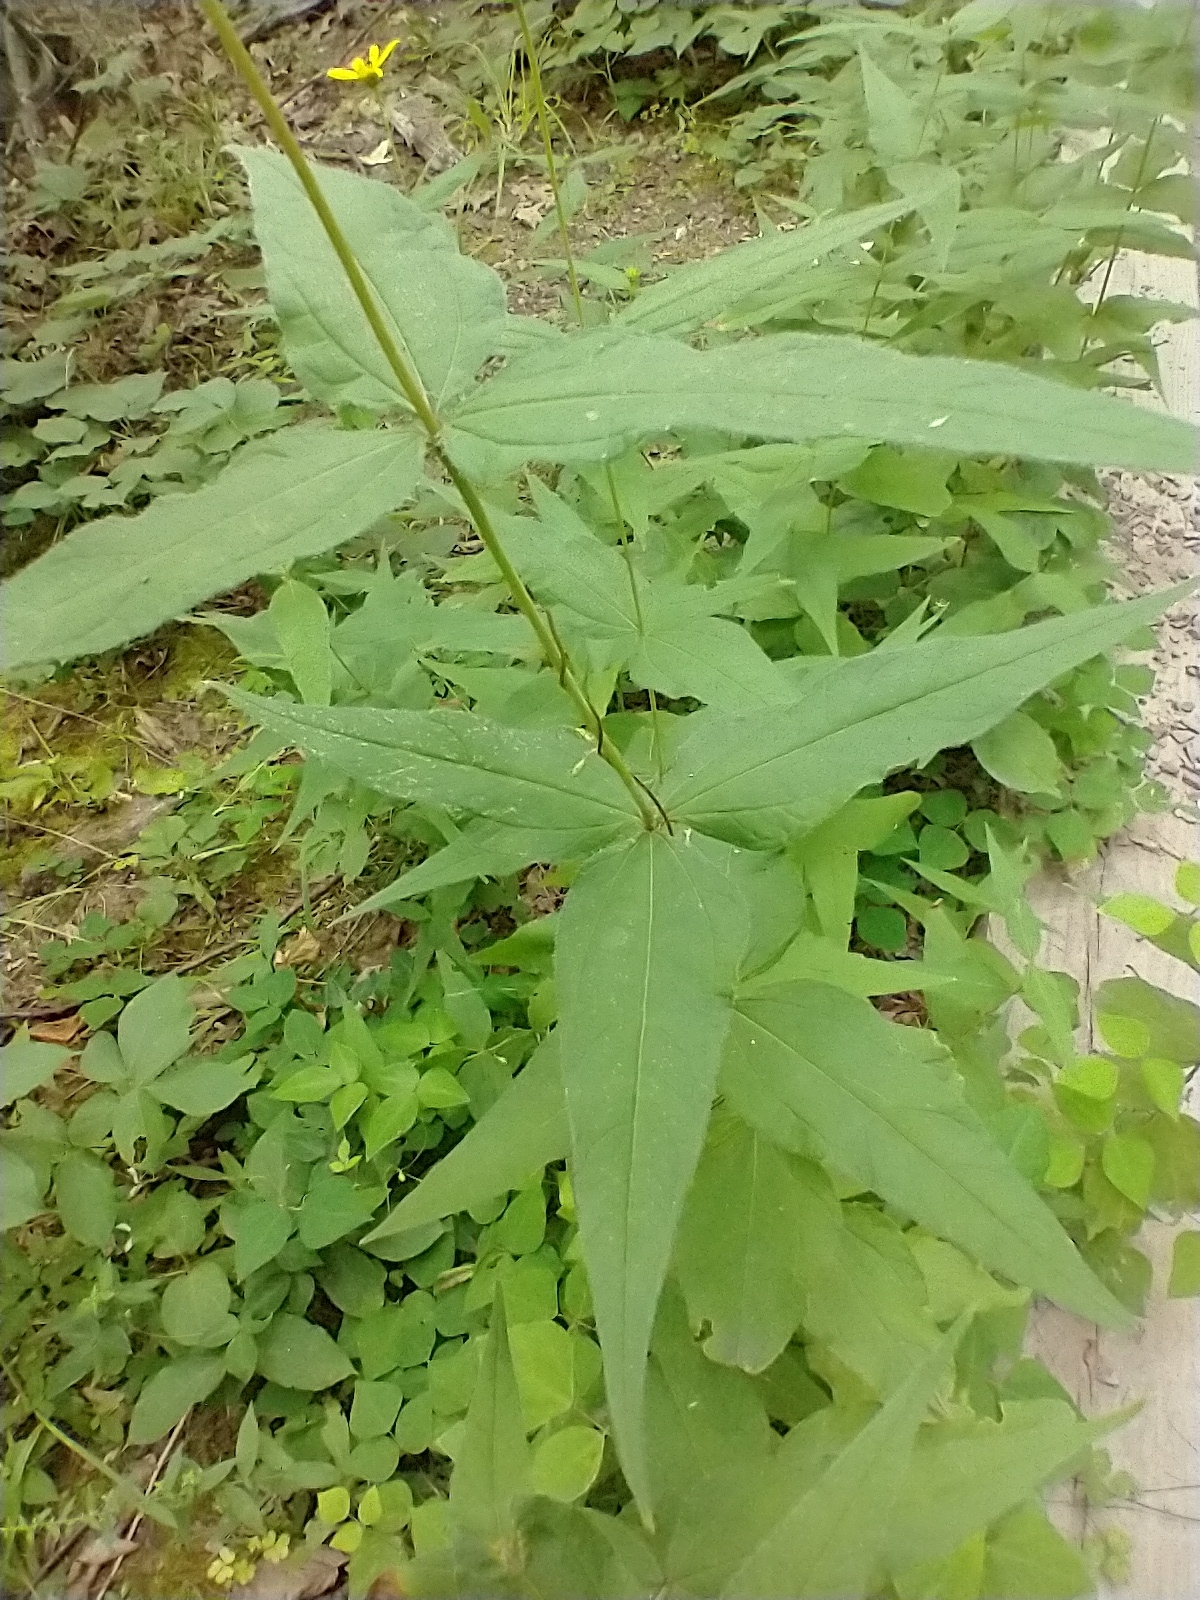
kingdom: Plantae
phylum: Tracheophyta
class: Magnoliopsida
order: Asterales
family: Asteraceae
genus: Helianthus
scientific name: Helianthus divaricatus
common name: Divergent sunflower
